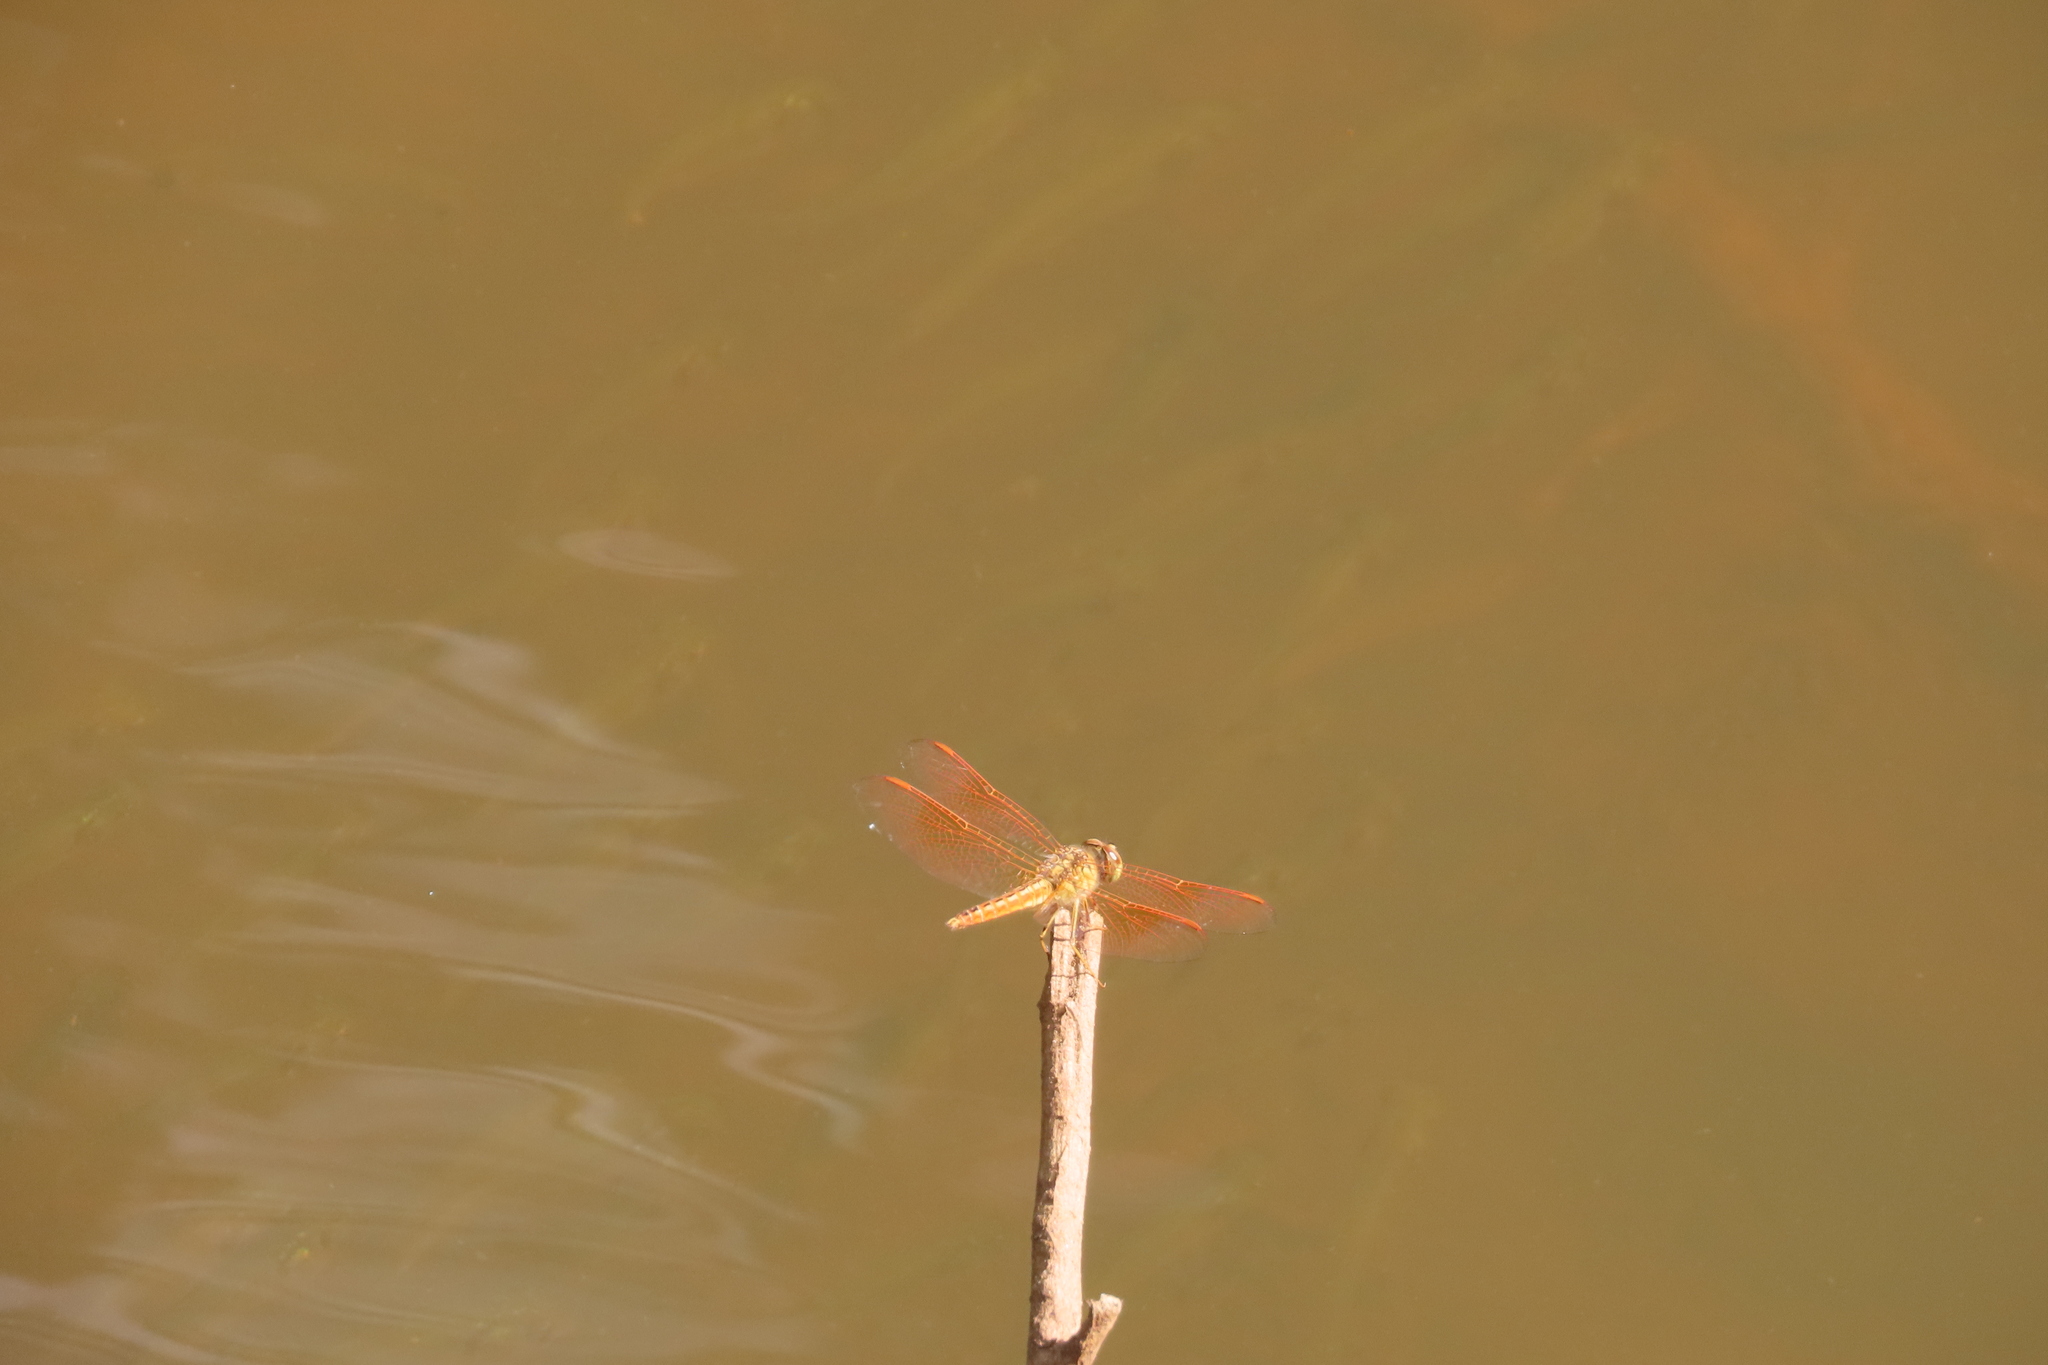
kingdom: Animalia
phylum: Arthropoda
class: Insecta
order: Odonata
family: Libellulidae
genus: Brachythemis
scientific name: Brachythemis contaminata
